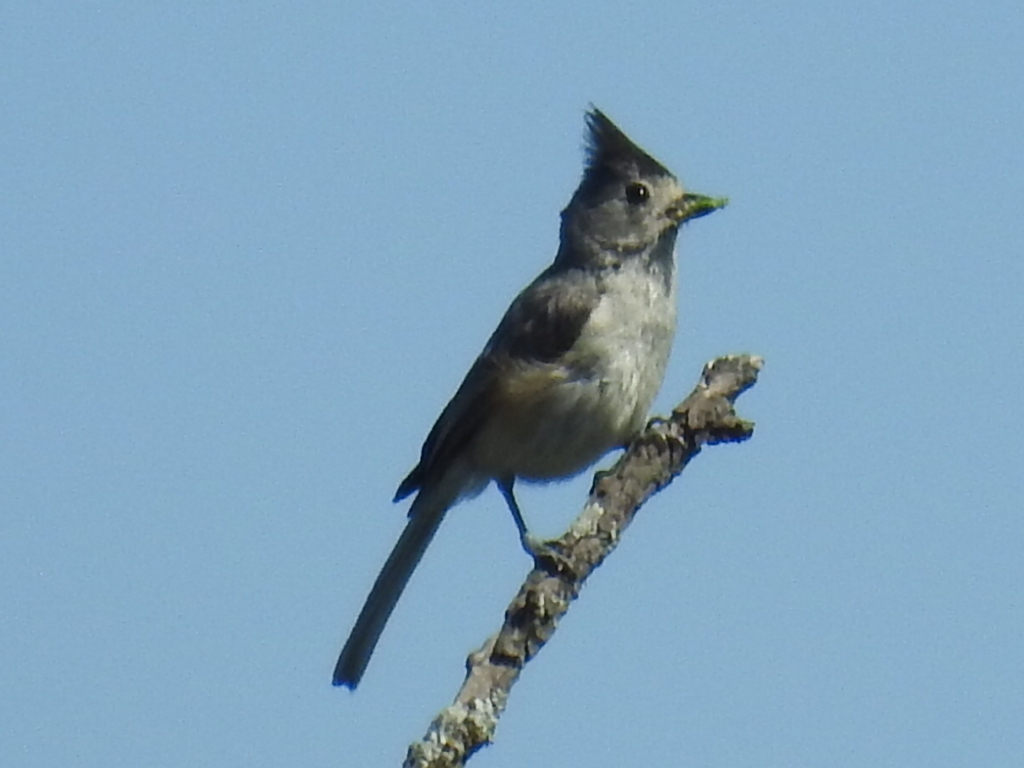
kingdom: Animalia
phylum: Chordata
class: Aves
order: Passeriformes
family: Paridae
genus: Baeolophus
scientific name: Baeolophus atricristatus
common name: Black-crested titmouse
